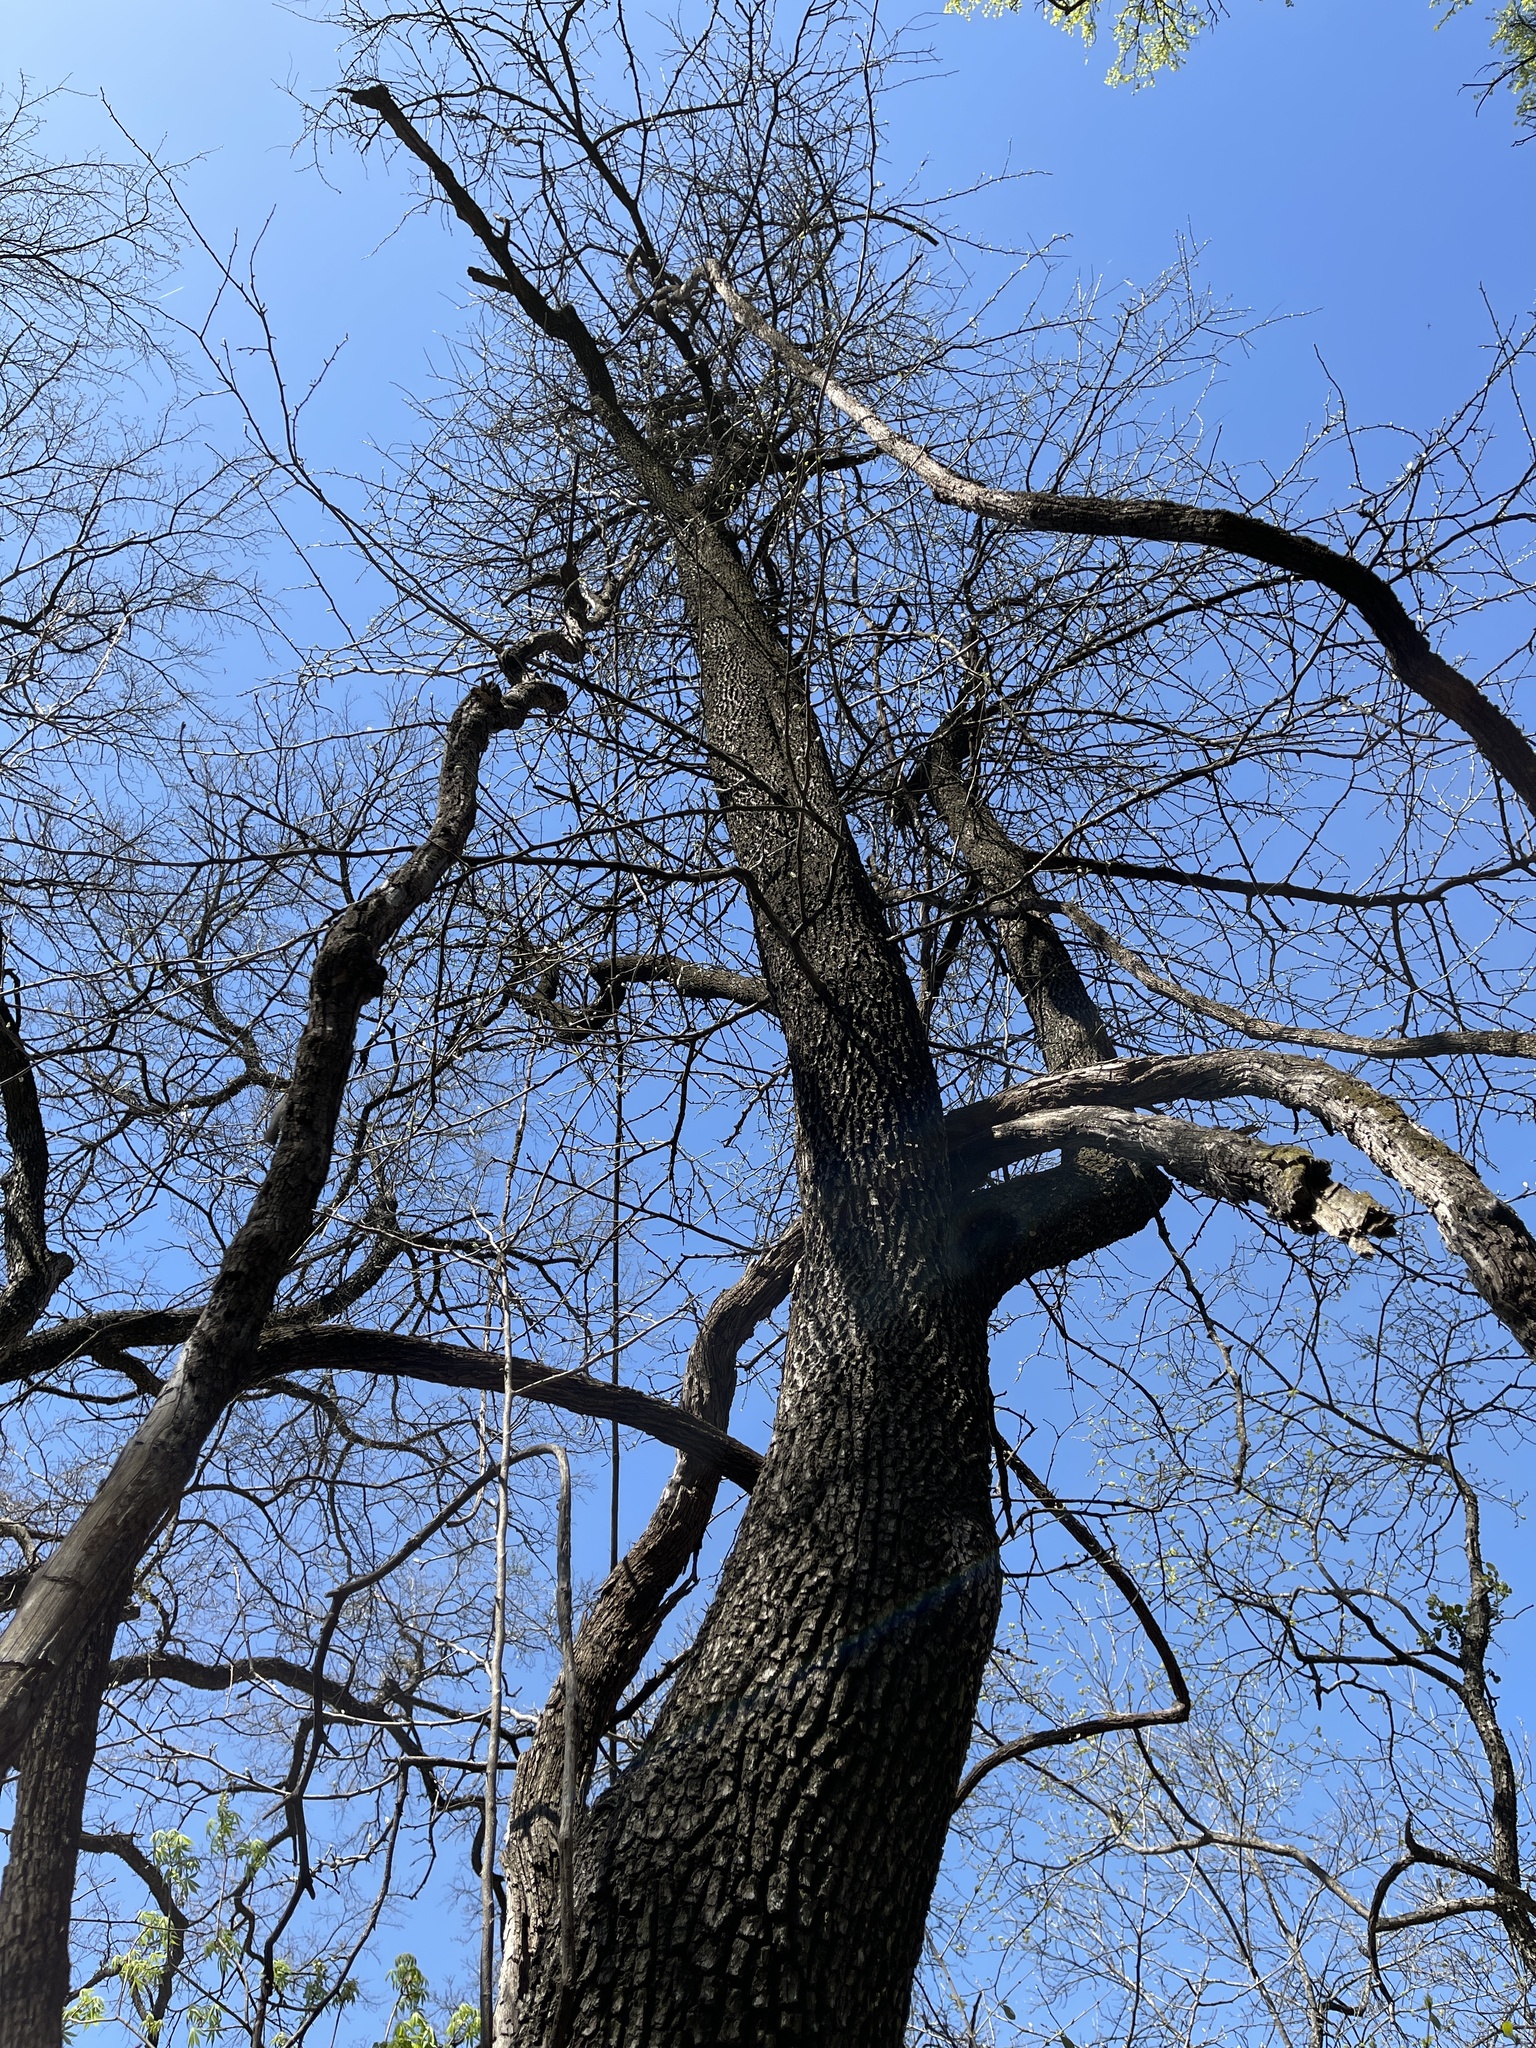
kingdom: Plantae
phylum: Tracheophyta
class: Magnoliopsida
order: Ericales
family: Ebenaceae
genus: Diospyros
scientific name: Diospyros virginiana
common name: Persimmon
